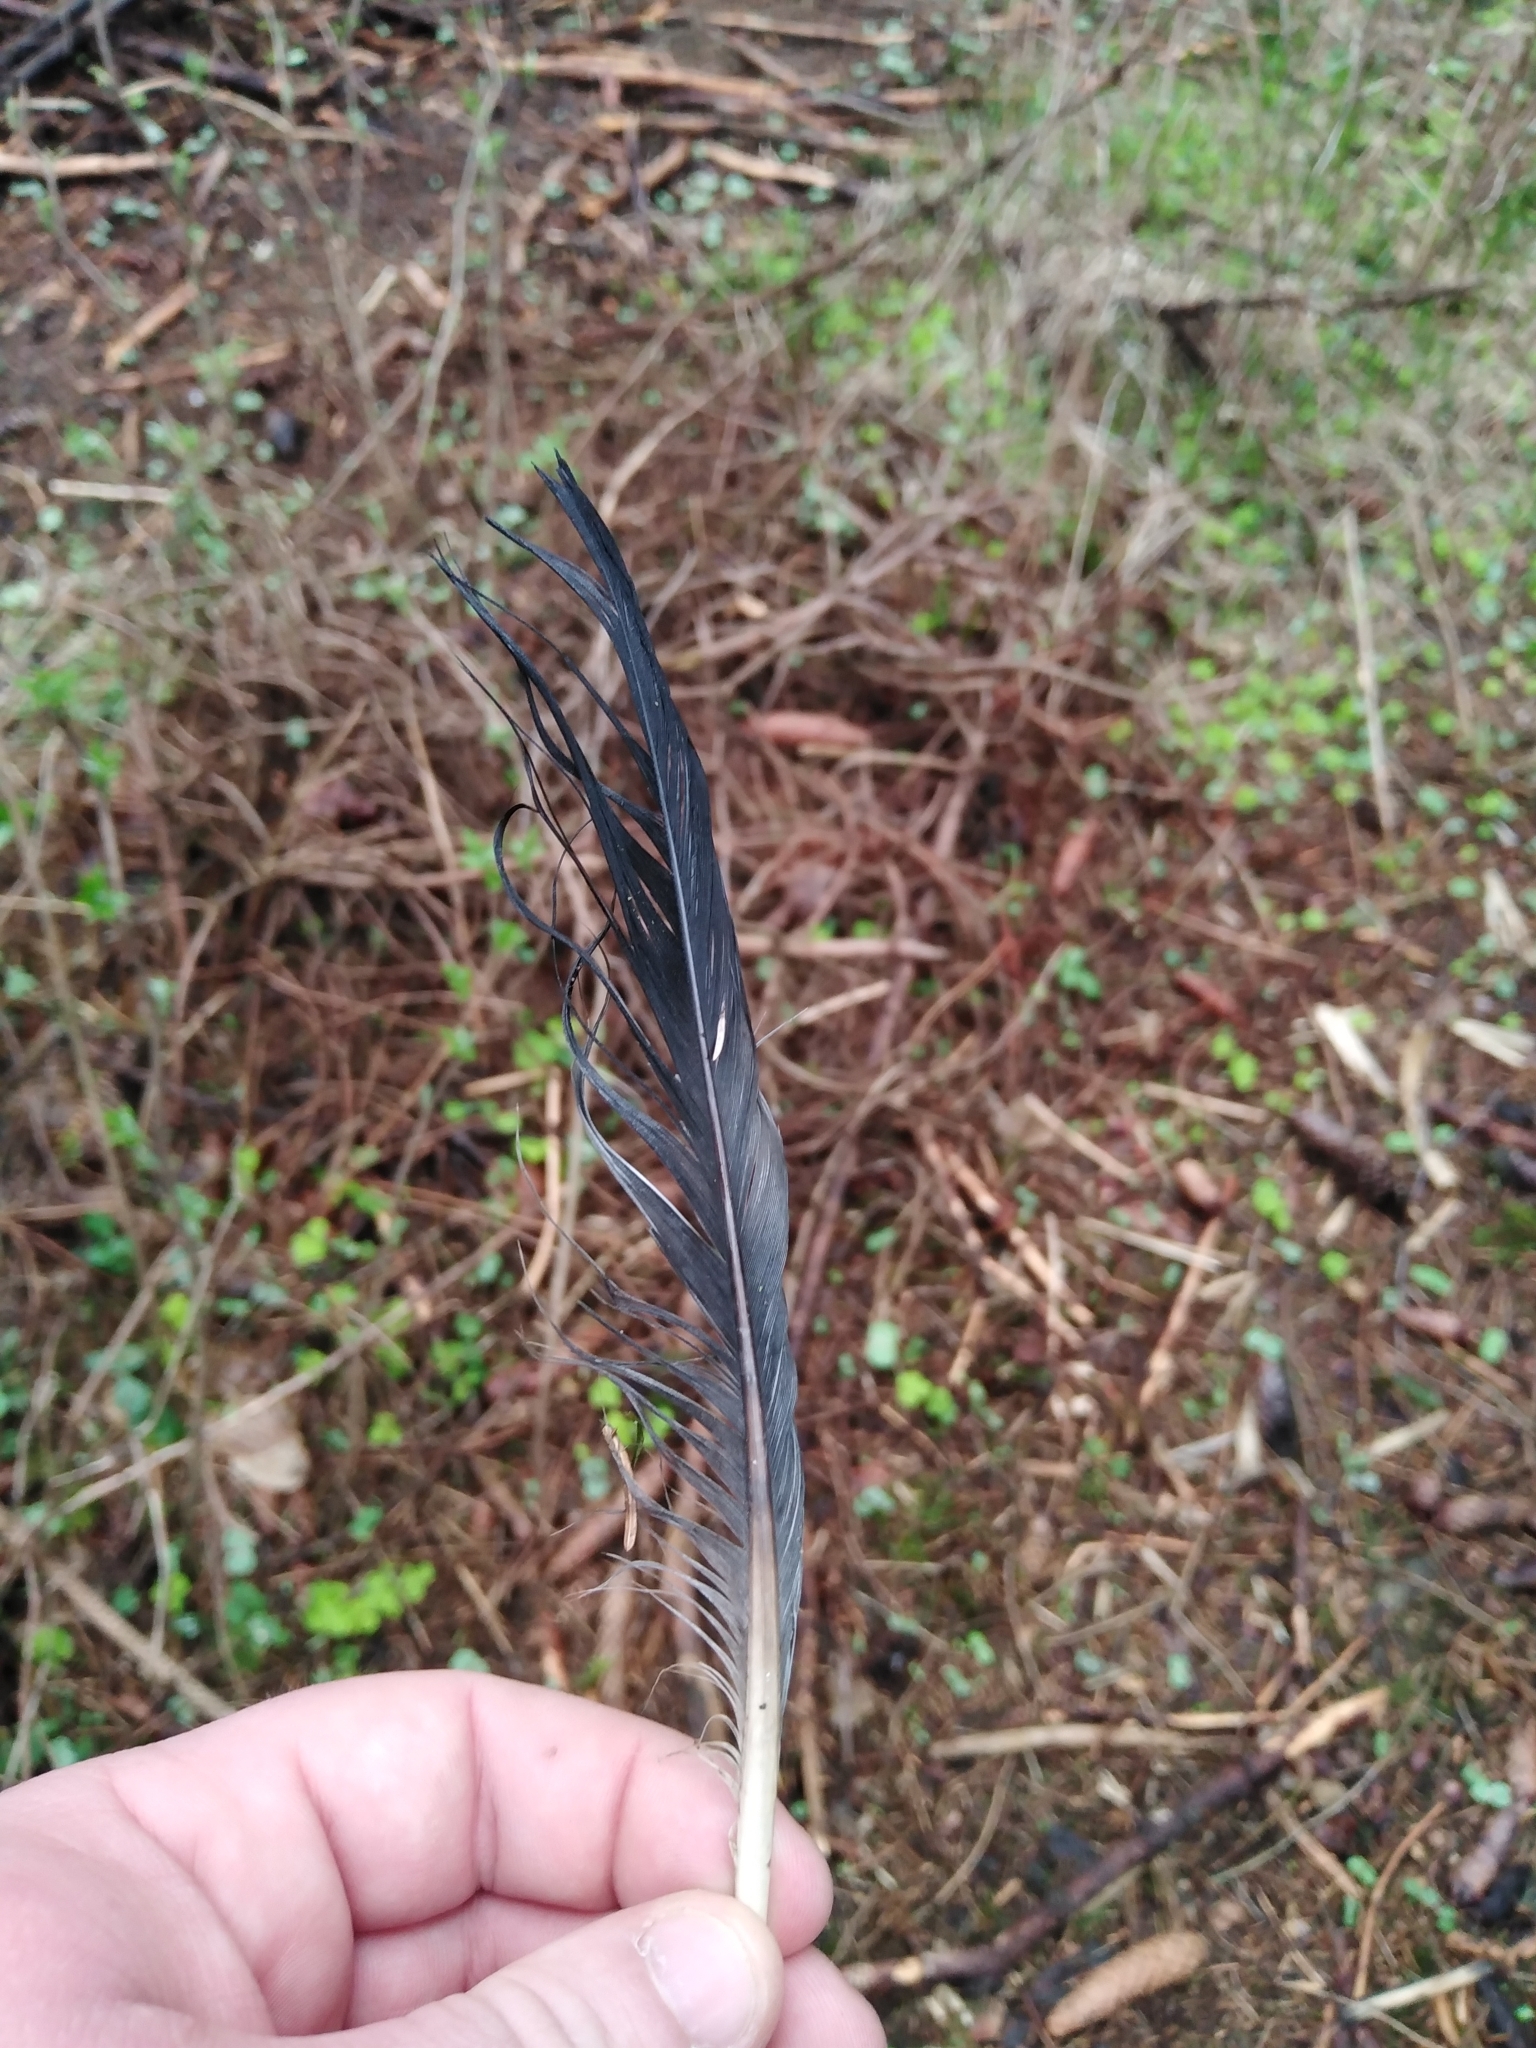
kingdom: Animalia
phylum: Chordata
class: Aves
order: Columbiformes
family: Columbidae
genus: Columba
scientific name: Columba palumbus
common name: Common wood pigeon
